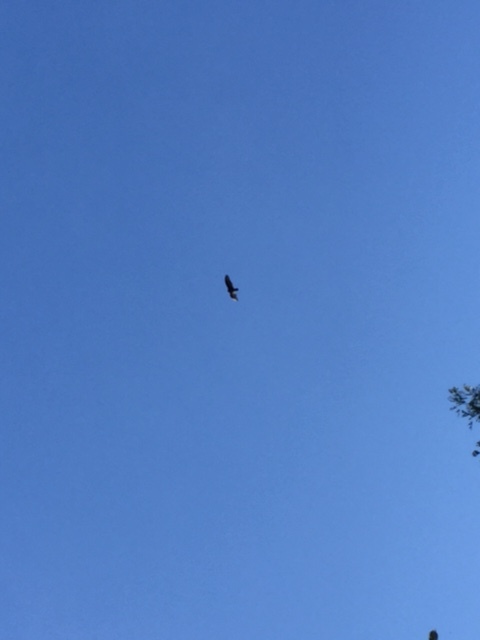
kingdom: Animalia
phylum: Chordata
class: Aves
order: Accipitriformes
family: Cathartidae
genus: Cathartes
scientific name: Cathartes aura
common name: Turkey vulture
